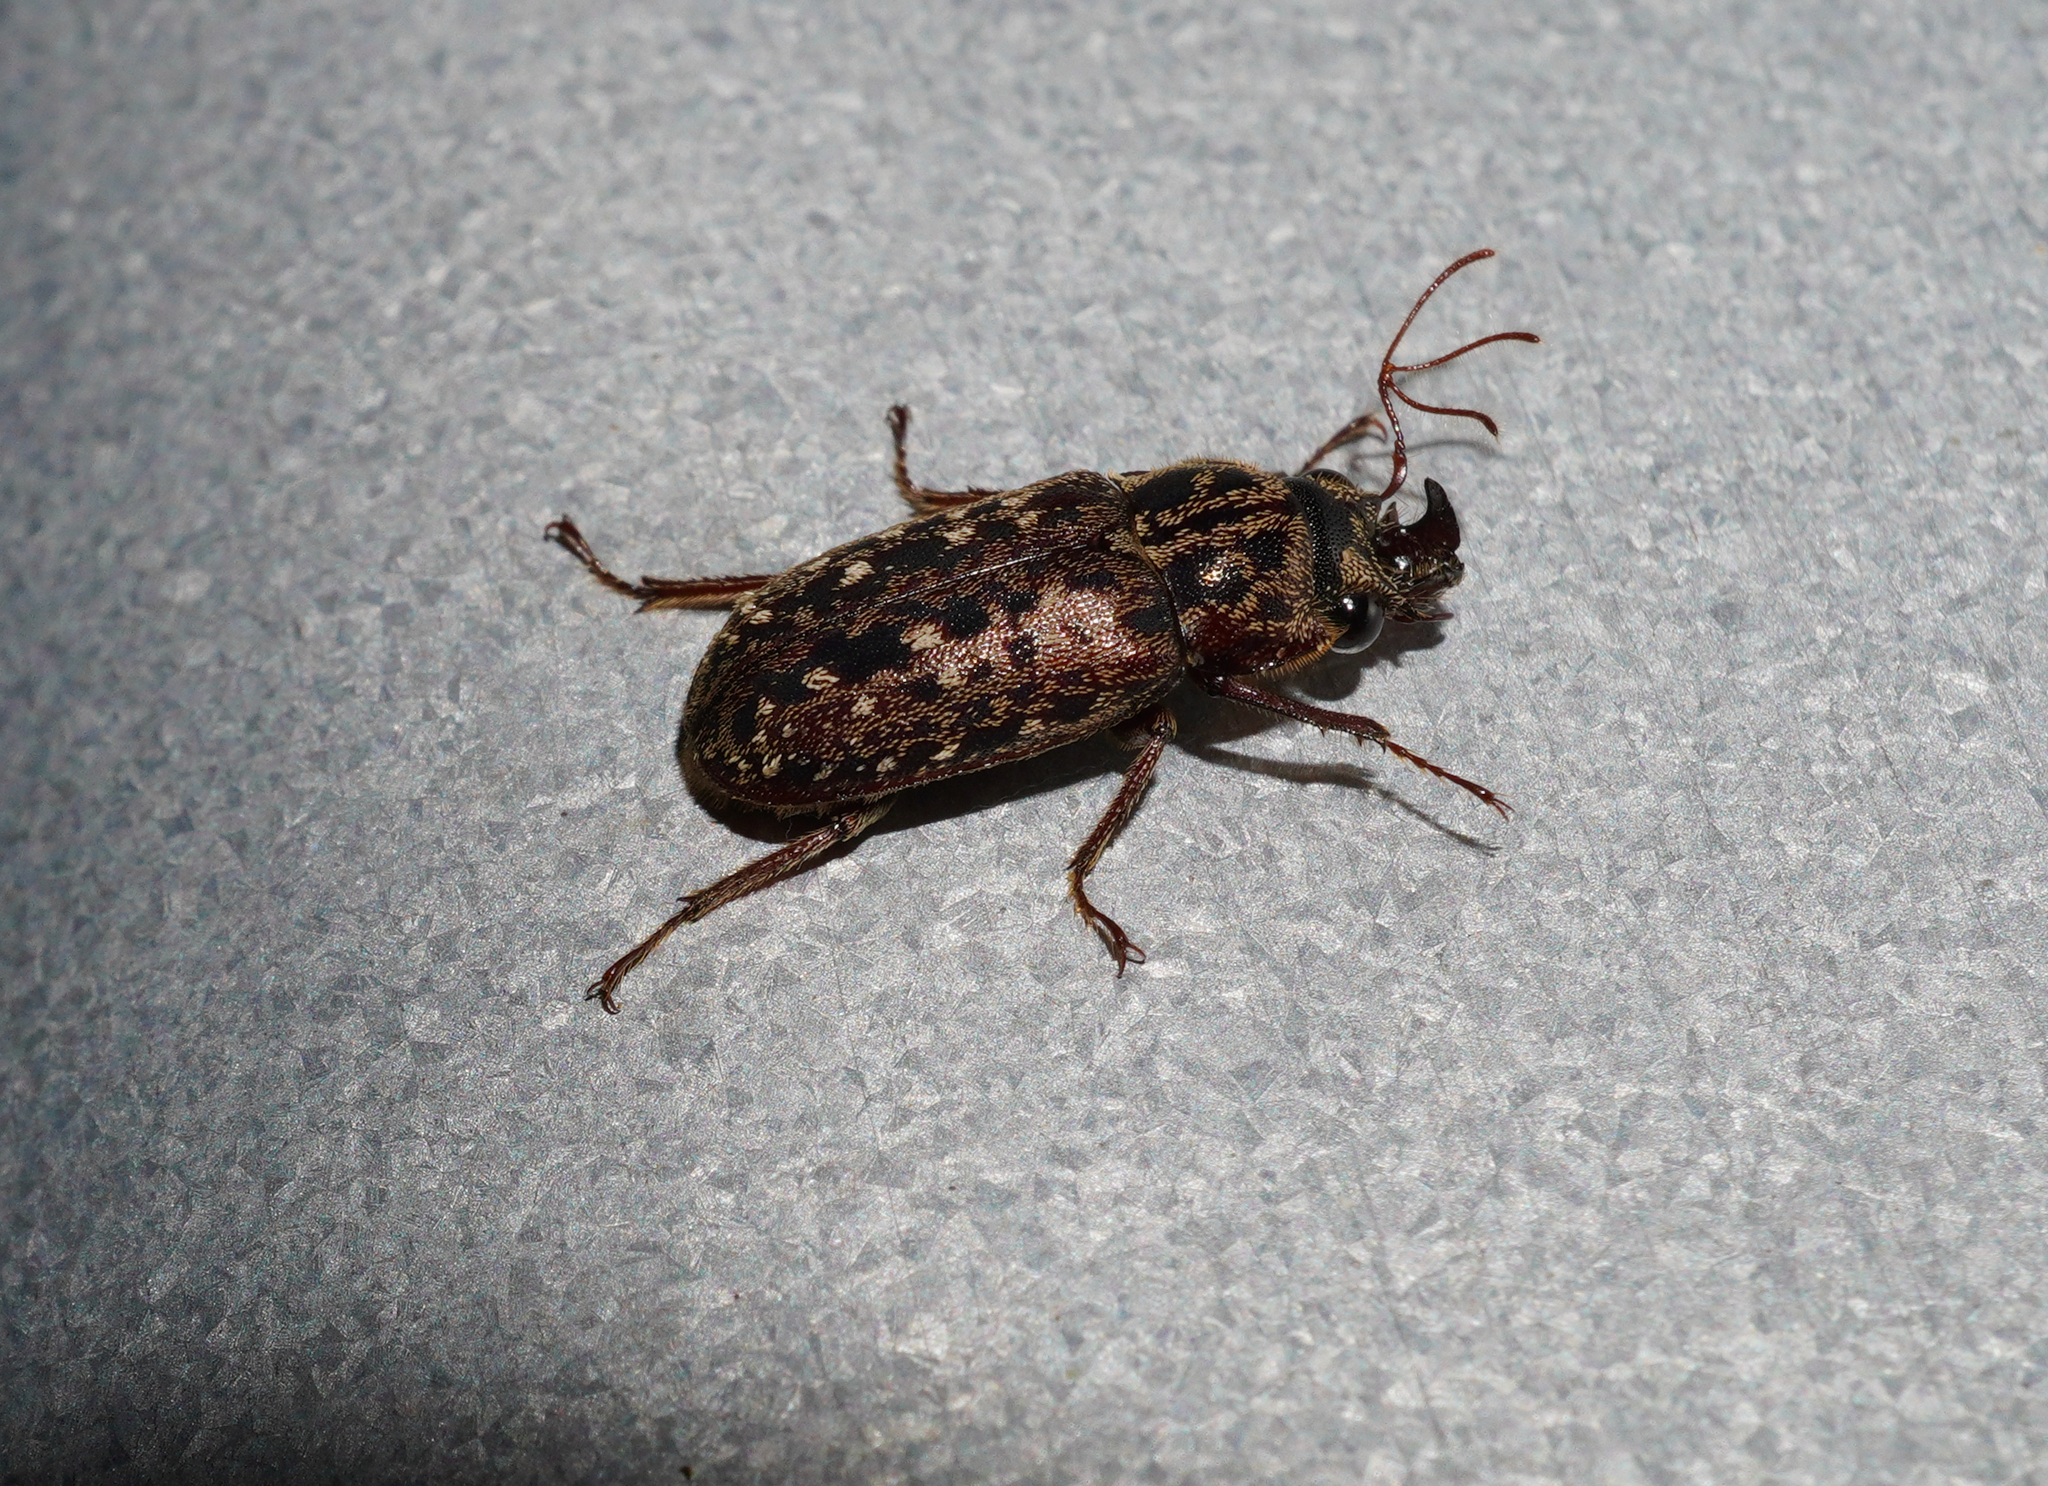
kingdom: Animalia
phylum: Arthropoda
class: Insecta
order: Coleoptera
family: Lucanidae
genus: Mitophyllus
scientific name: Mitophyllus irroratus
